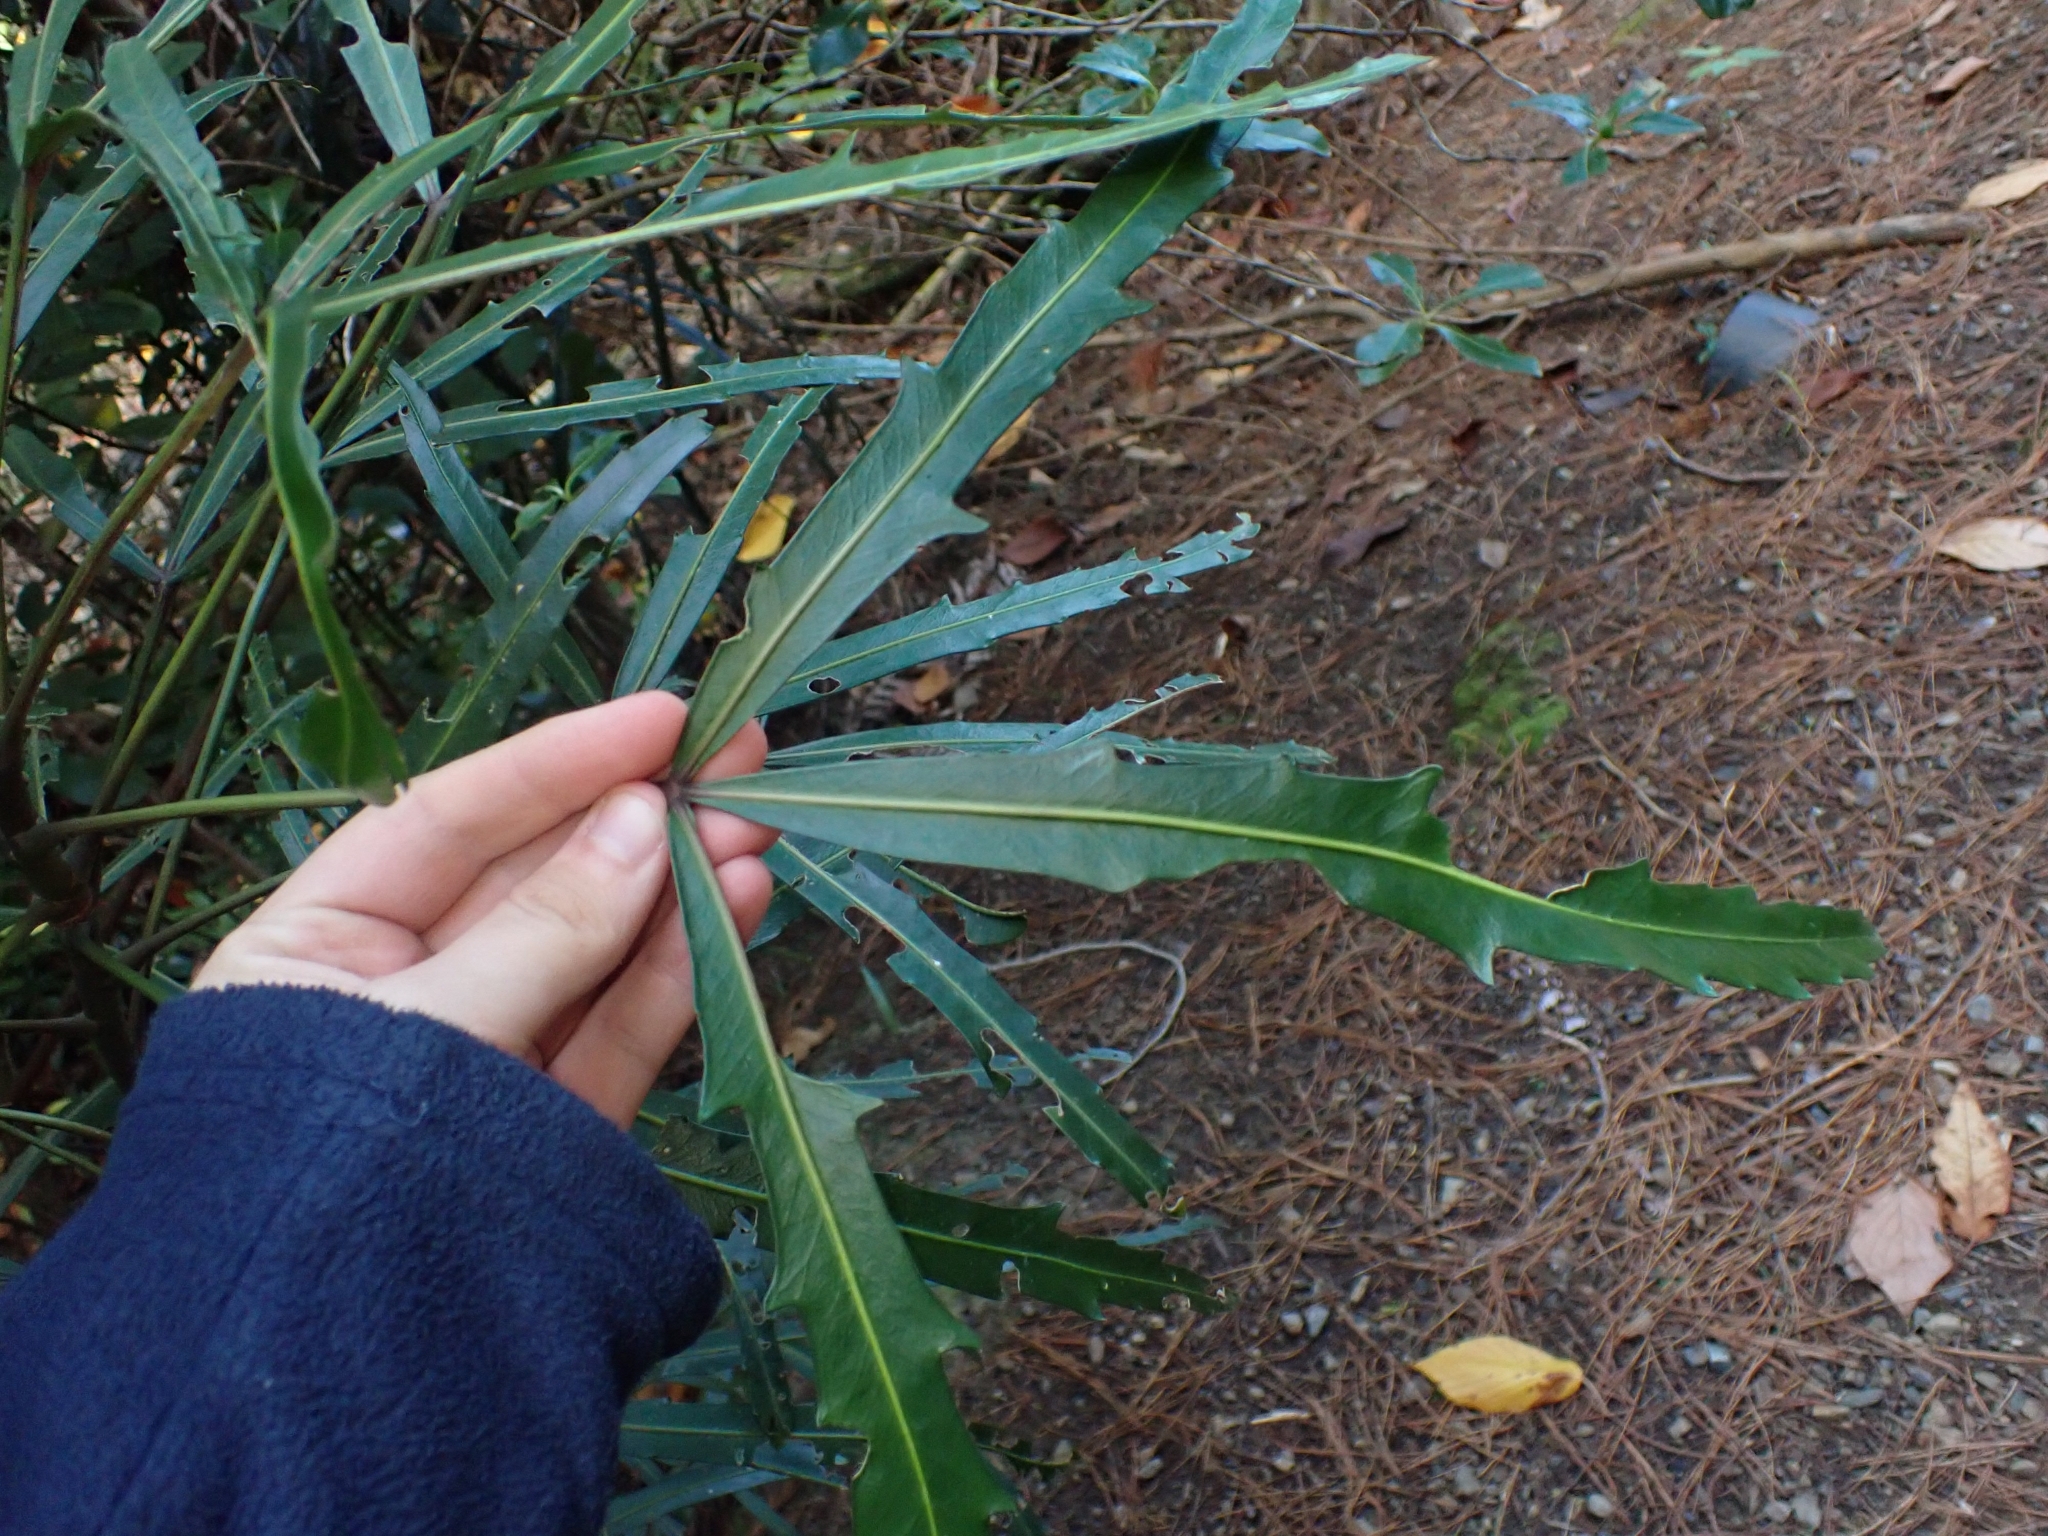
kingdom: Plantae
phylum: Tracheophyta
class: Magnoliopsida
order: Apiales
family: Araliaceae
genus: Pseudopanax
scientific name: Pseudopanax
